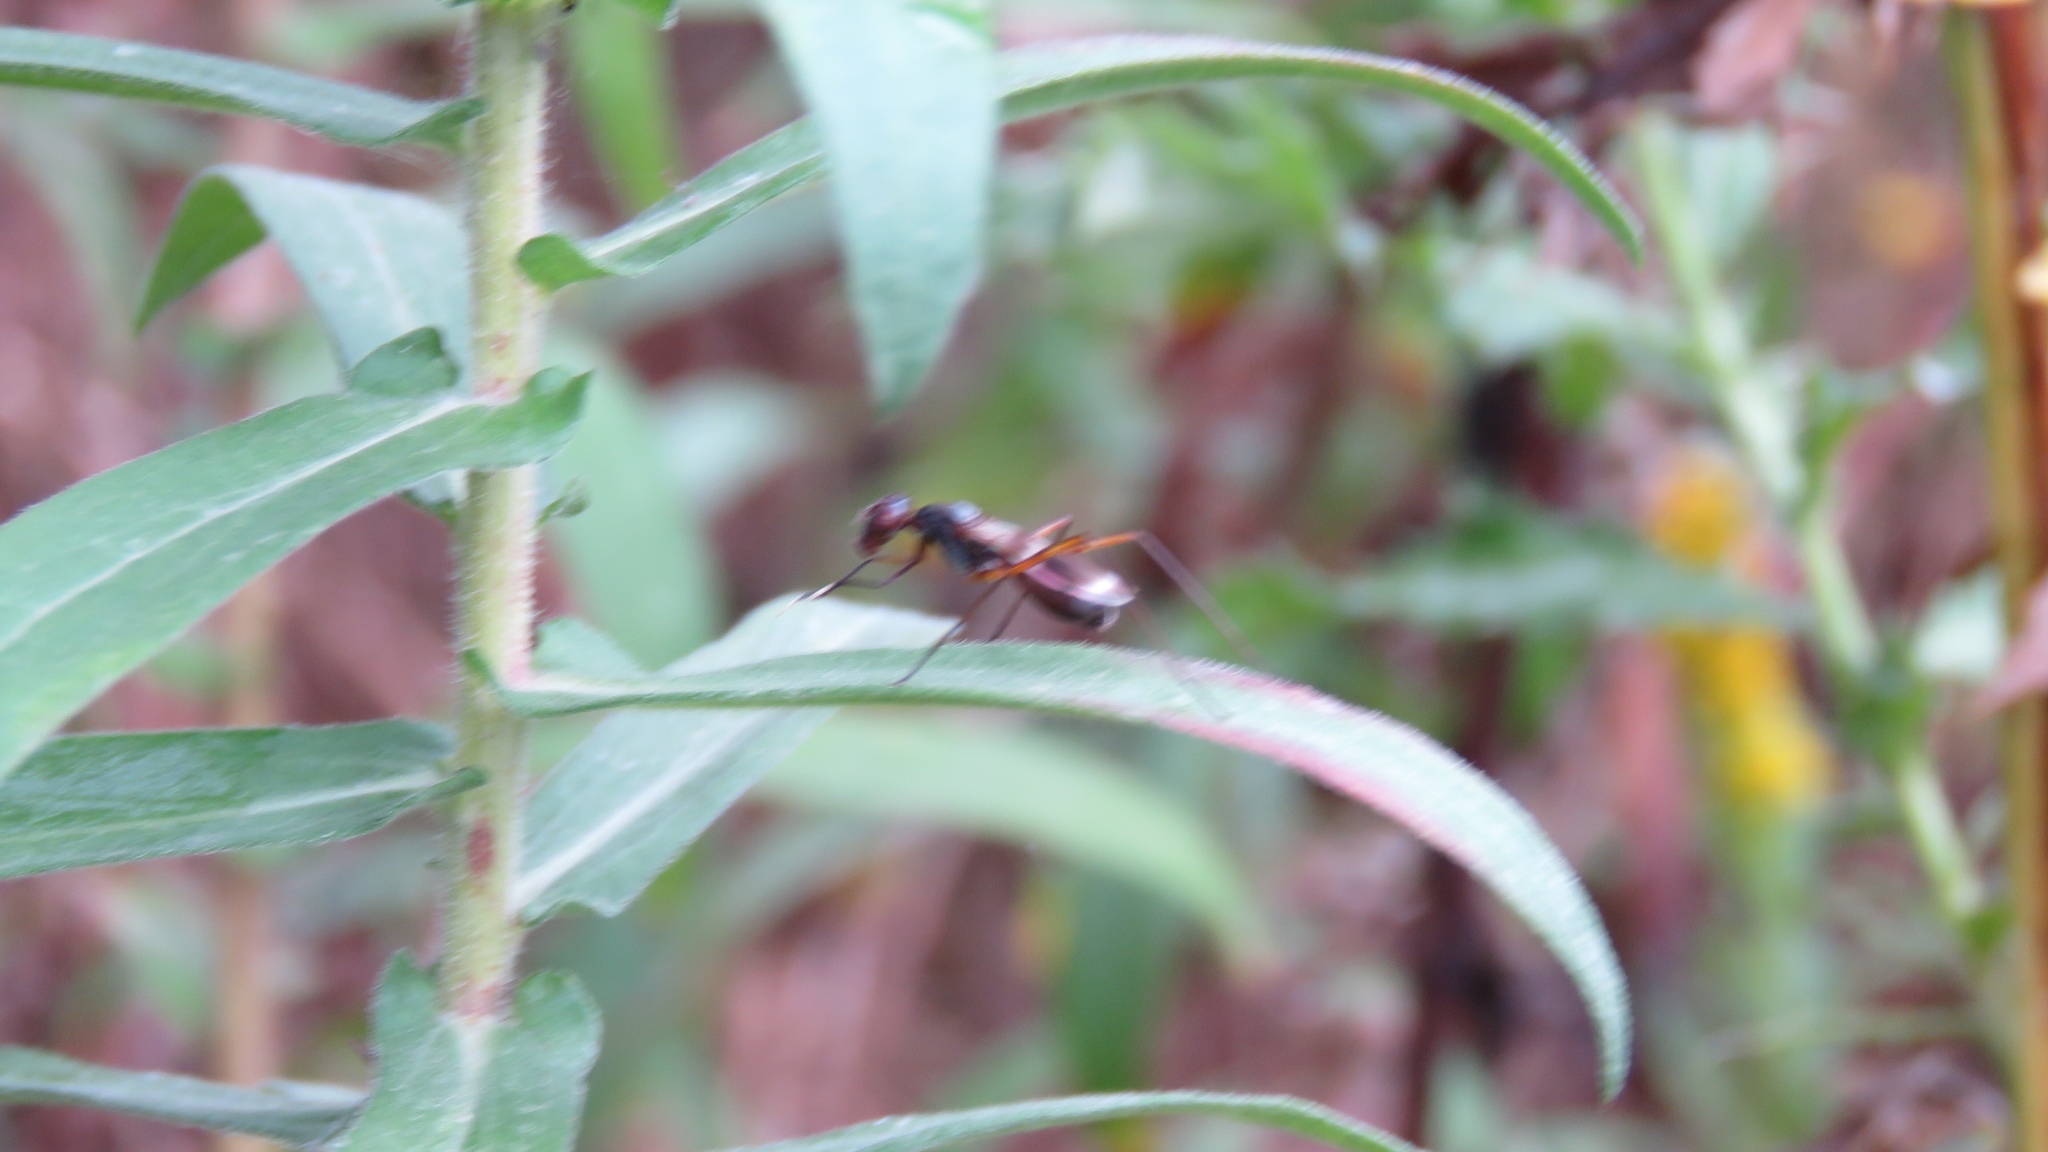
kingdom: Animalia
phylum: Arthropoda
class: Insecta
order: Diptera
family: Micropezidae
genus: Taeniaptera
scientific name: Taeniaptera trivittata
